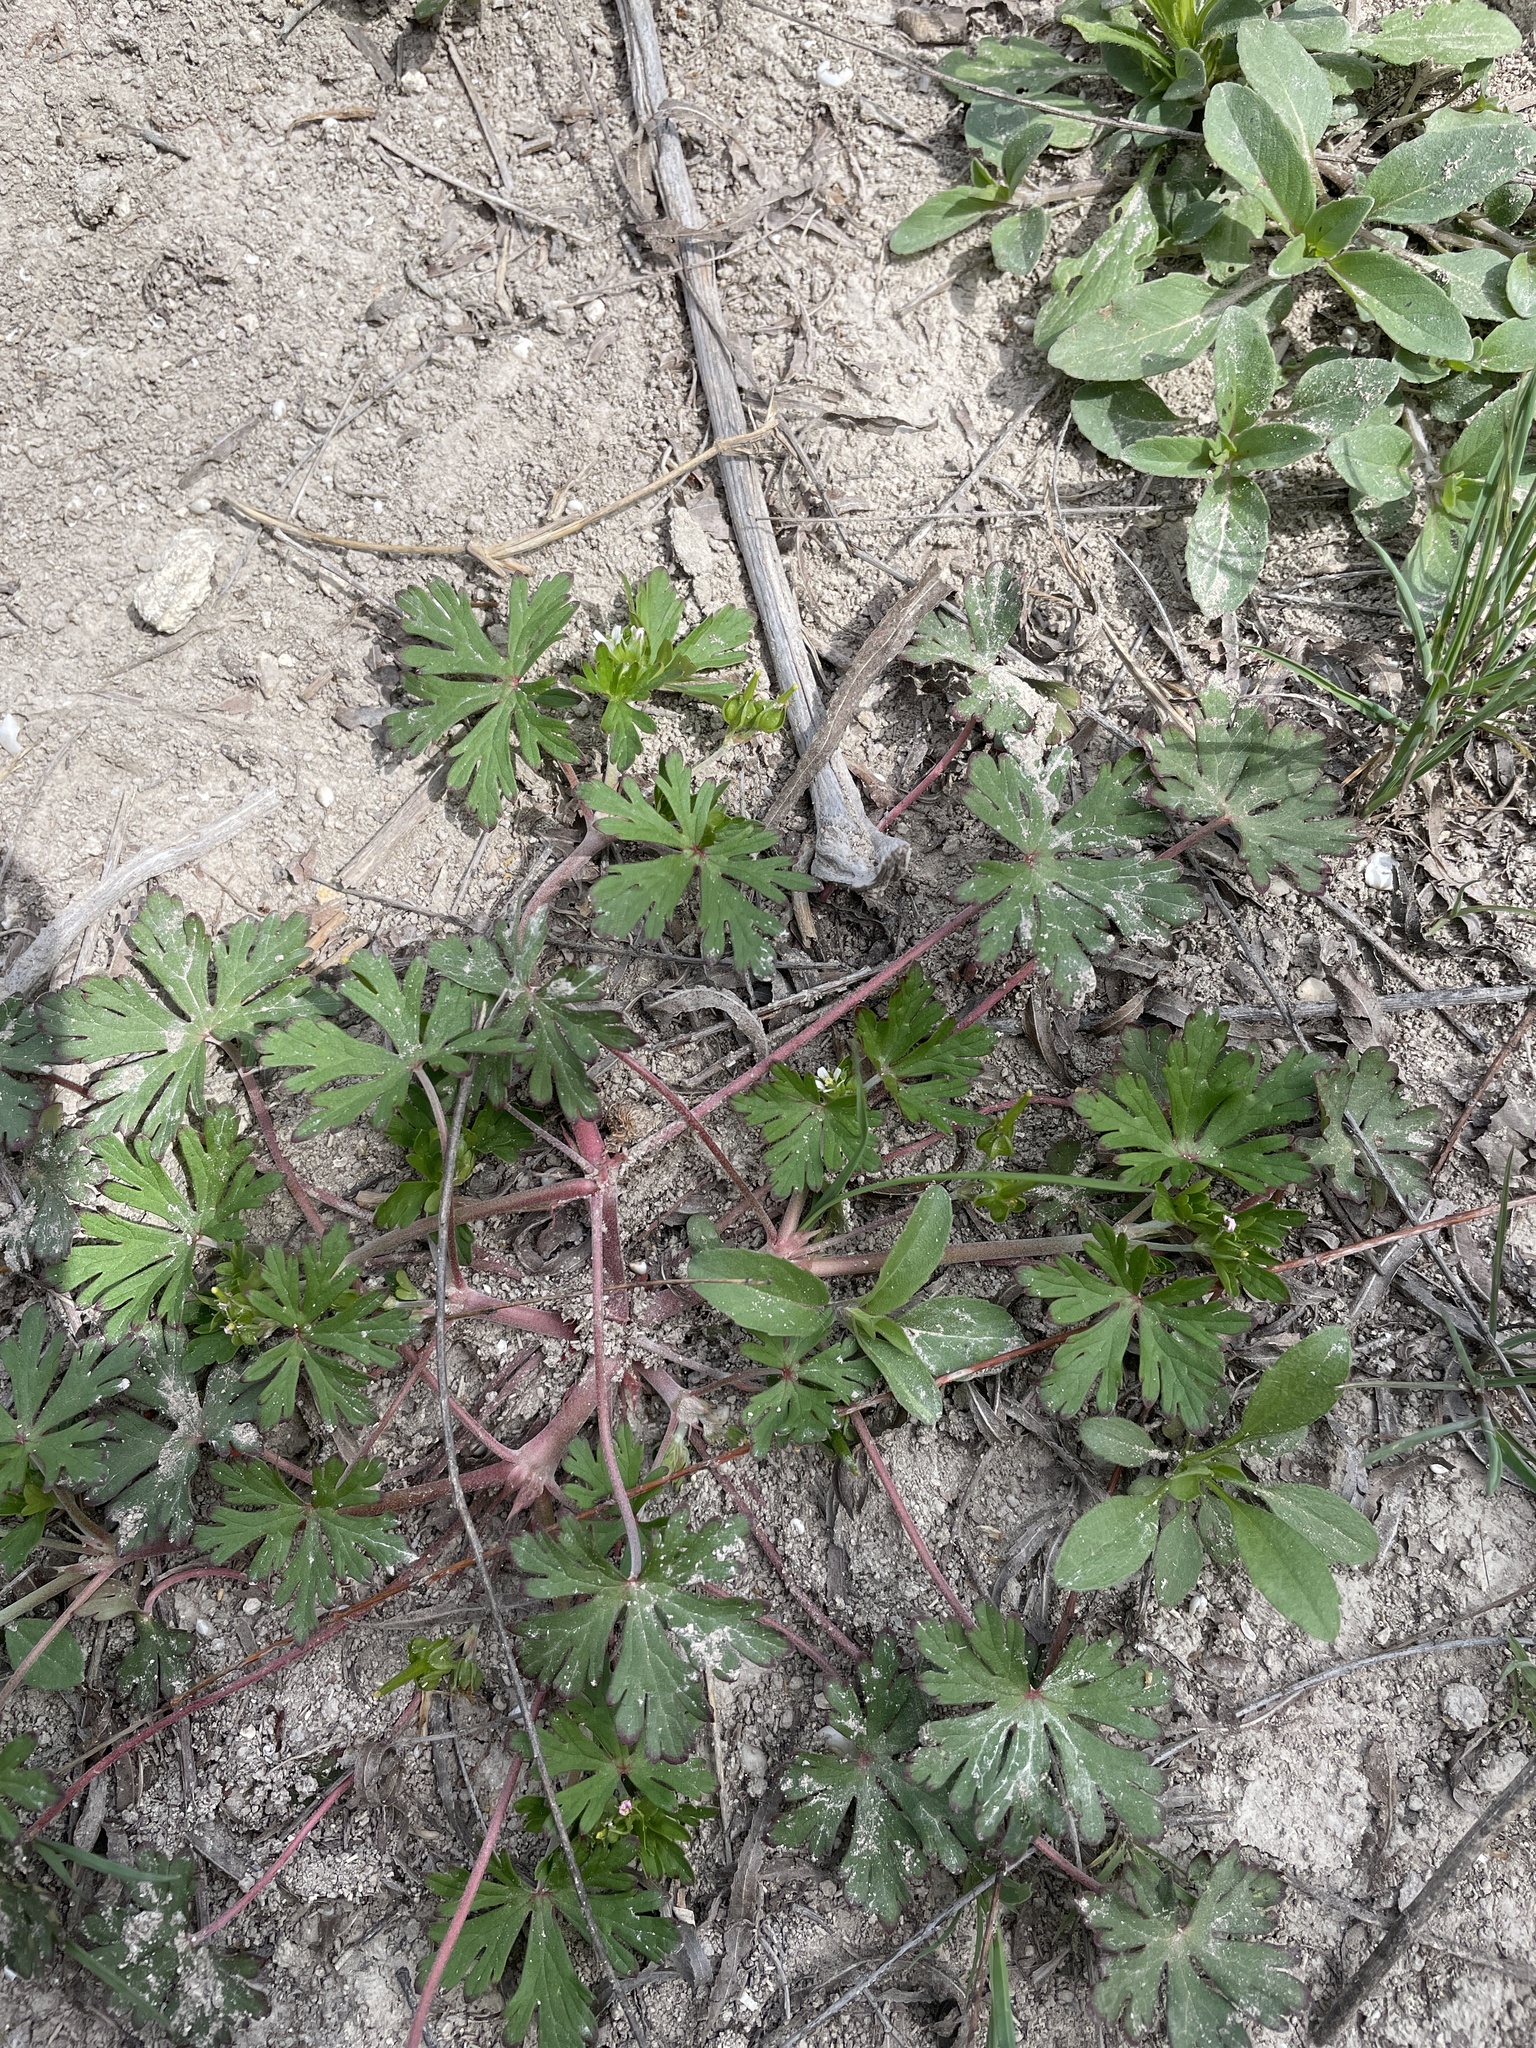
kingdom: Plantae
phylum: Tracheophyta
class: Magnoliopsida
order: Geraniales
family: Geraniaceae
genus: Geranium
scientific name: Geranium texanum
